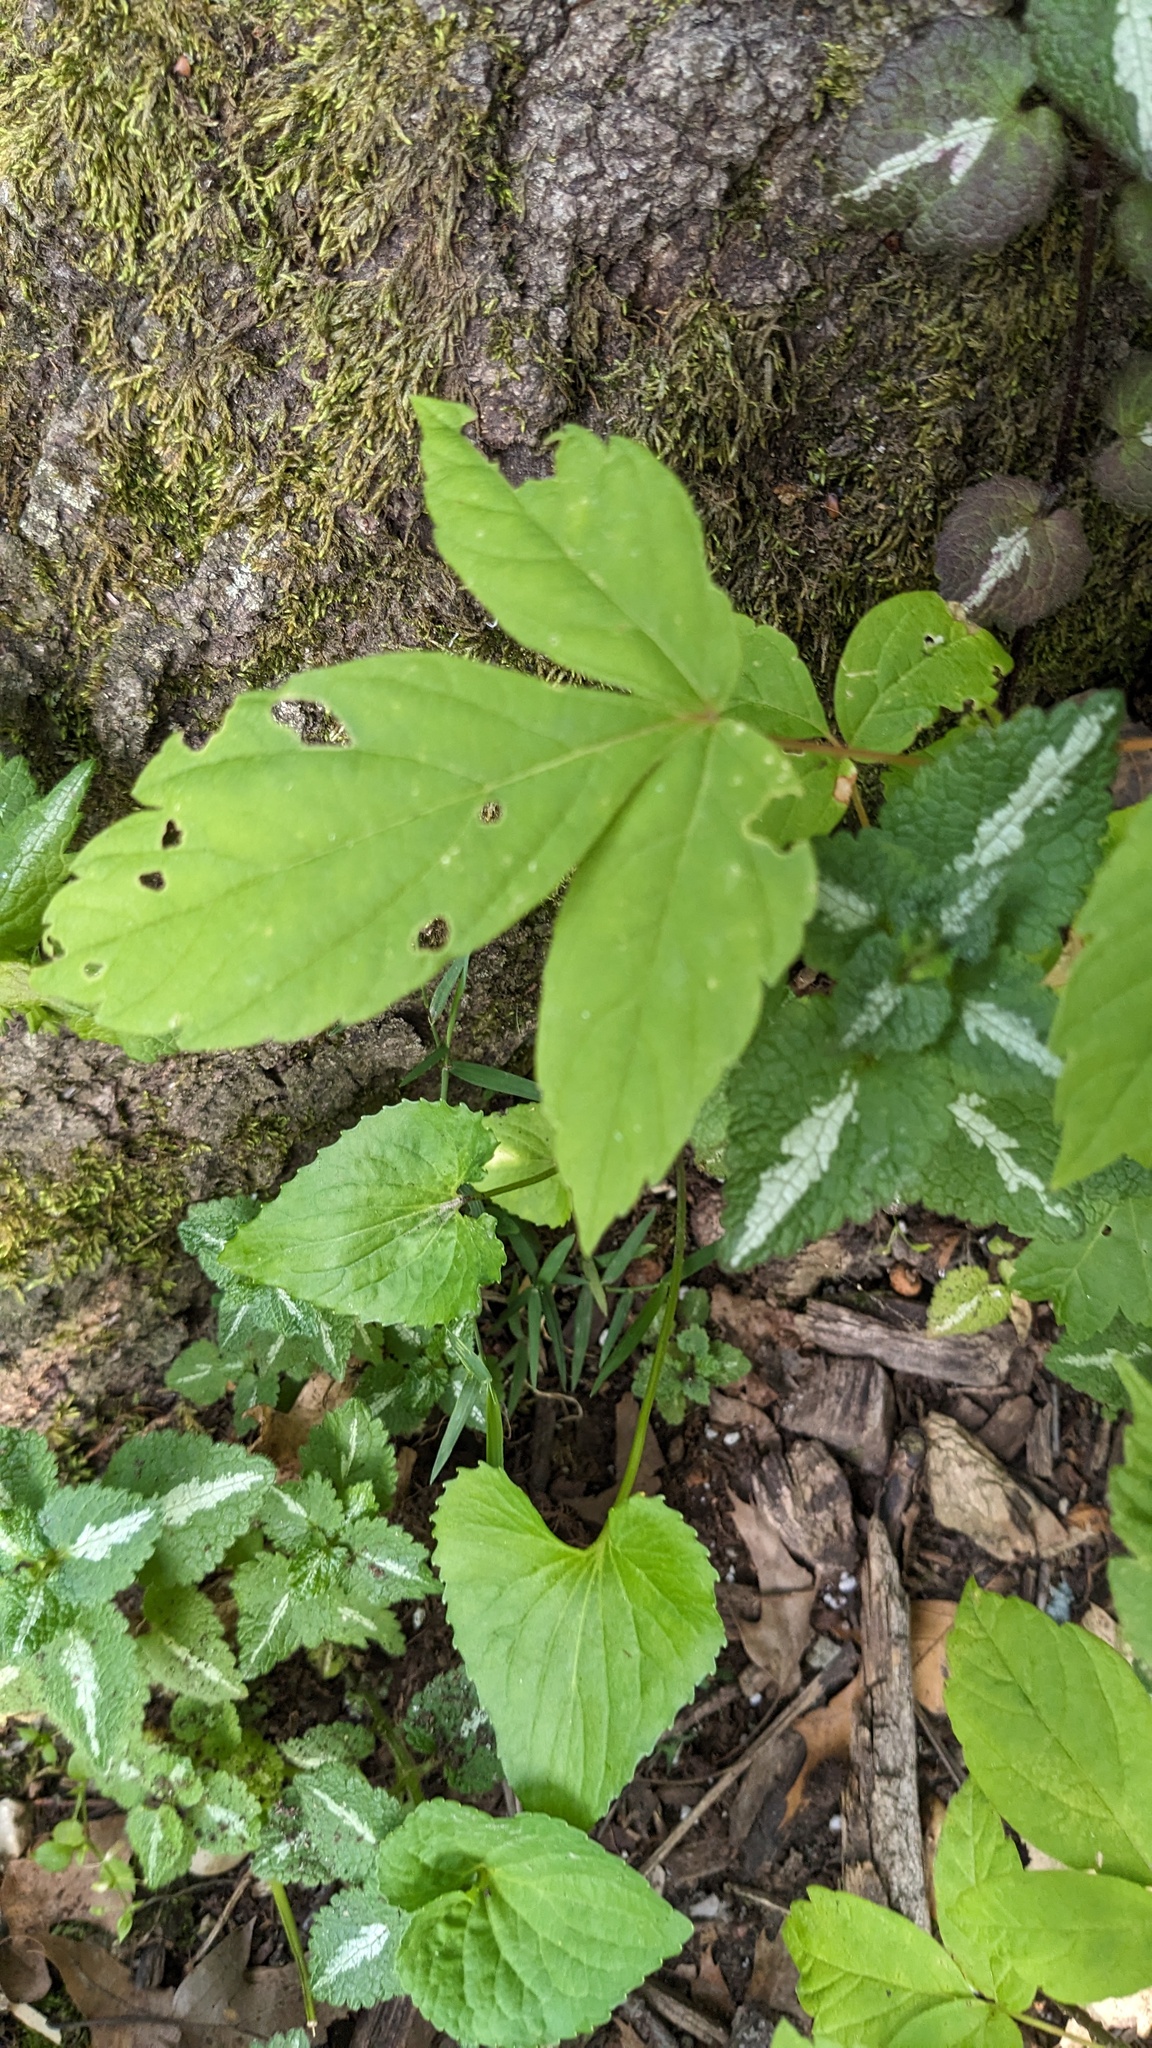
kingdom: Plantae
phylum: Tracheophyta
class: Magnoliopsida
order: Sapindales
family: Sapindaceae
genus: Acer
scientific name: Acer negundo
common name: Ashleaf maple
